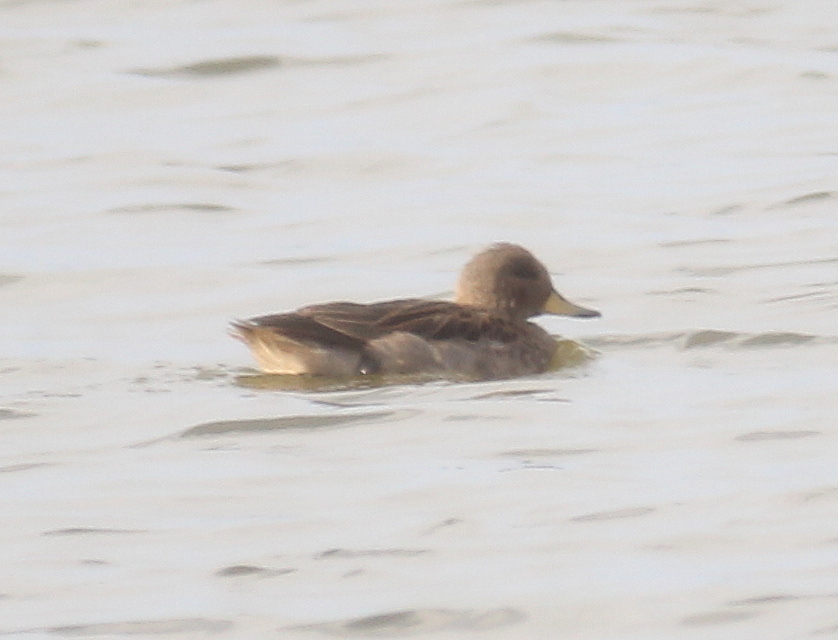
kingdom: Animalia
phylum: Chordata
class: Aves
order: Anseriformes
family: Anatidae
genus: Anas
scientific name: Anas flavirostris
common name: Yellow-billed teal
